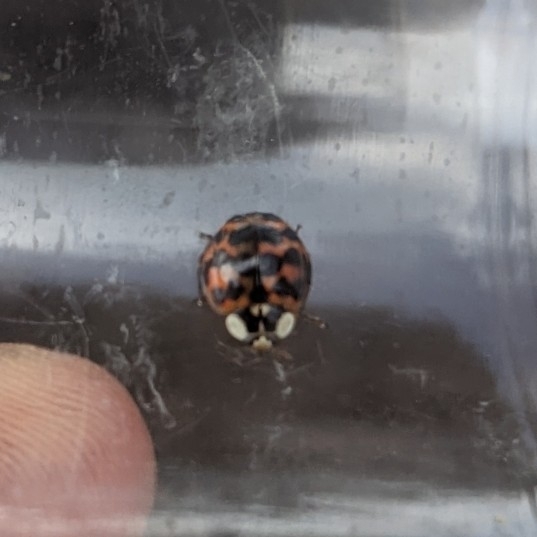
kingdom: Animalia
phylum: Arthropoda
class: Insecta
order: Coleoptera
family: Coccinellidae
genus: Harmonia
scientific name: Harmonia axyridis
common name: Harlequin ladybird
